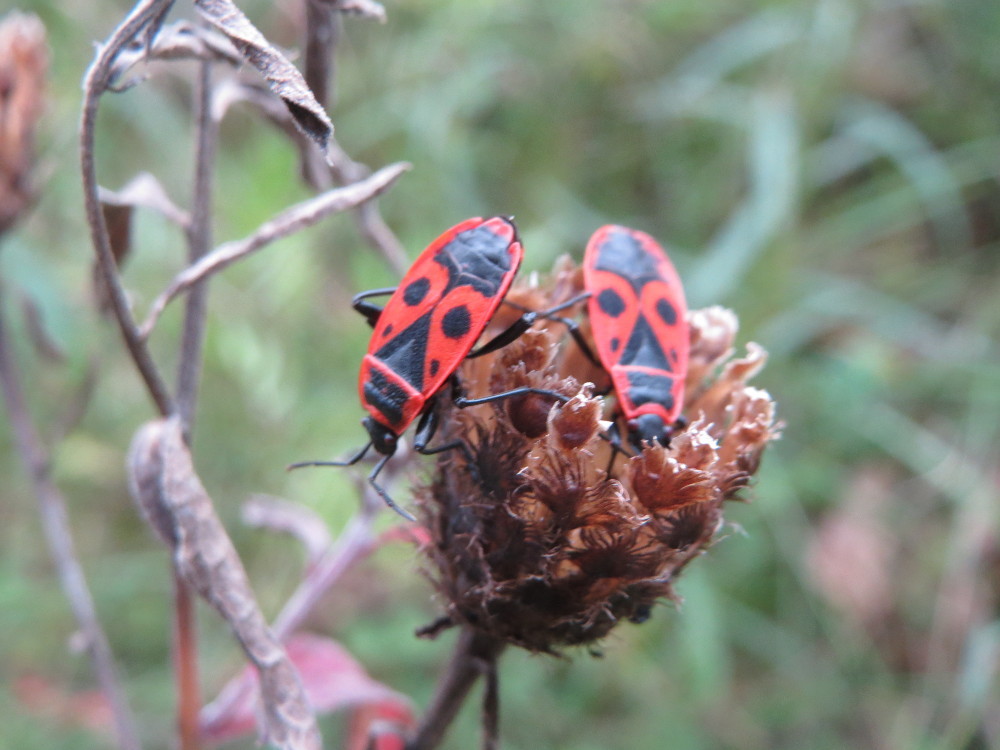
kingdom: Animalia
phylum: Arthropoda
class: Insecta
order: Hemiptera
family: Pyrrhocoridae
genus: Pyrrhocoris
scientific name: Pyrrhocoris apterus
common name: Firebug
